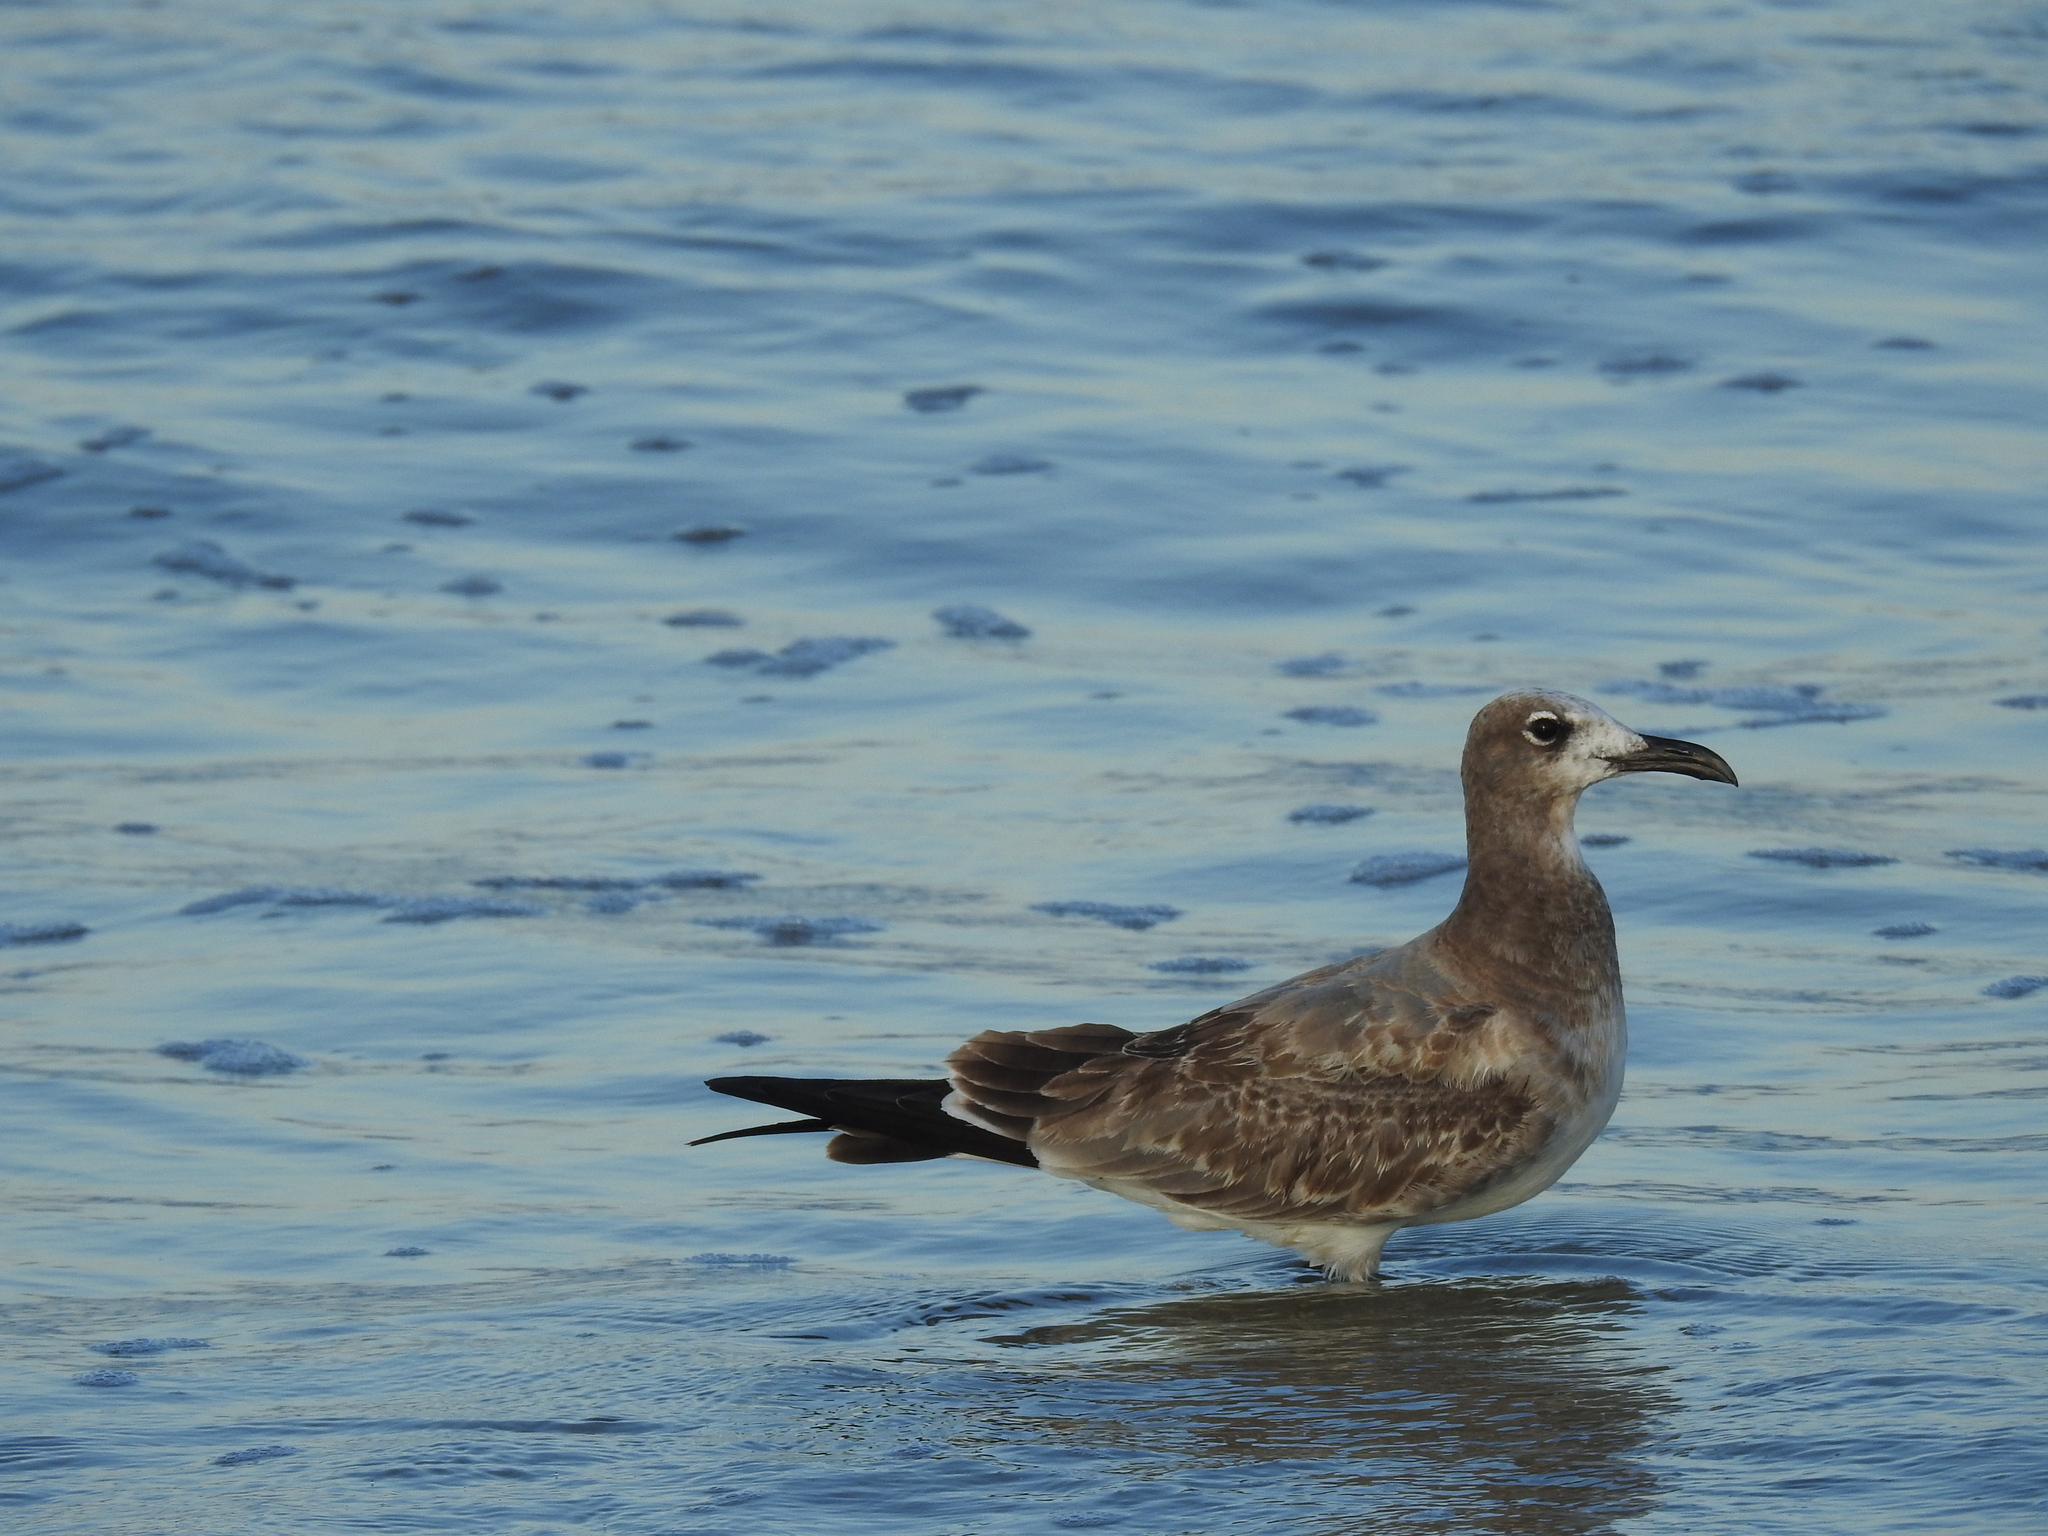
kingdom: Animalia
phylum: Chordata
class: Aves
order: Charadriiformes
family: Laridae
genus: Leucophaeus
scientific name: Leucophaeus atricilla
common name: Laughing gull
